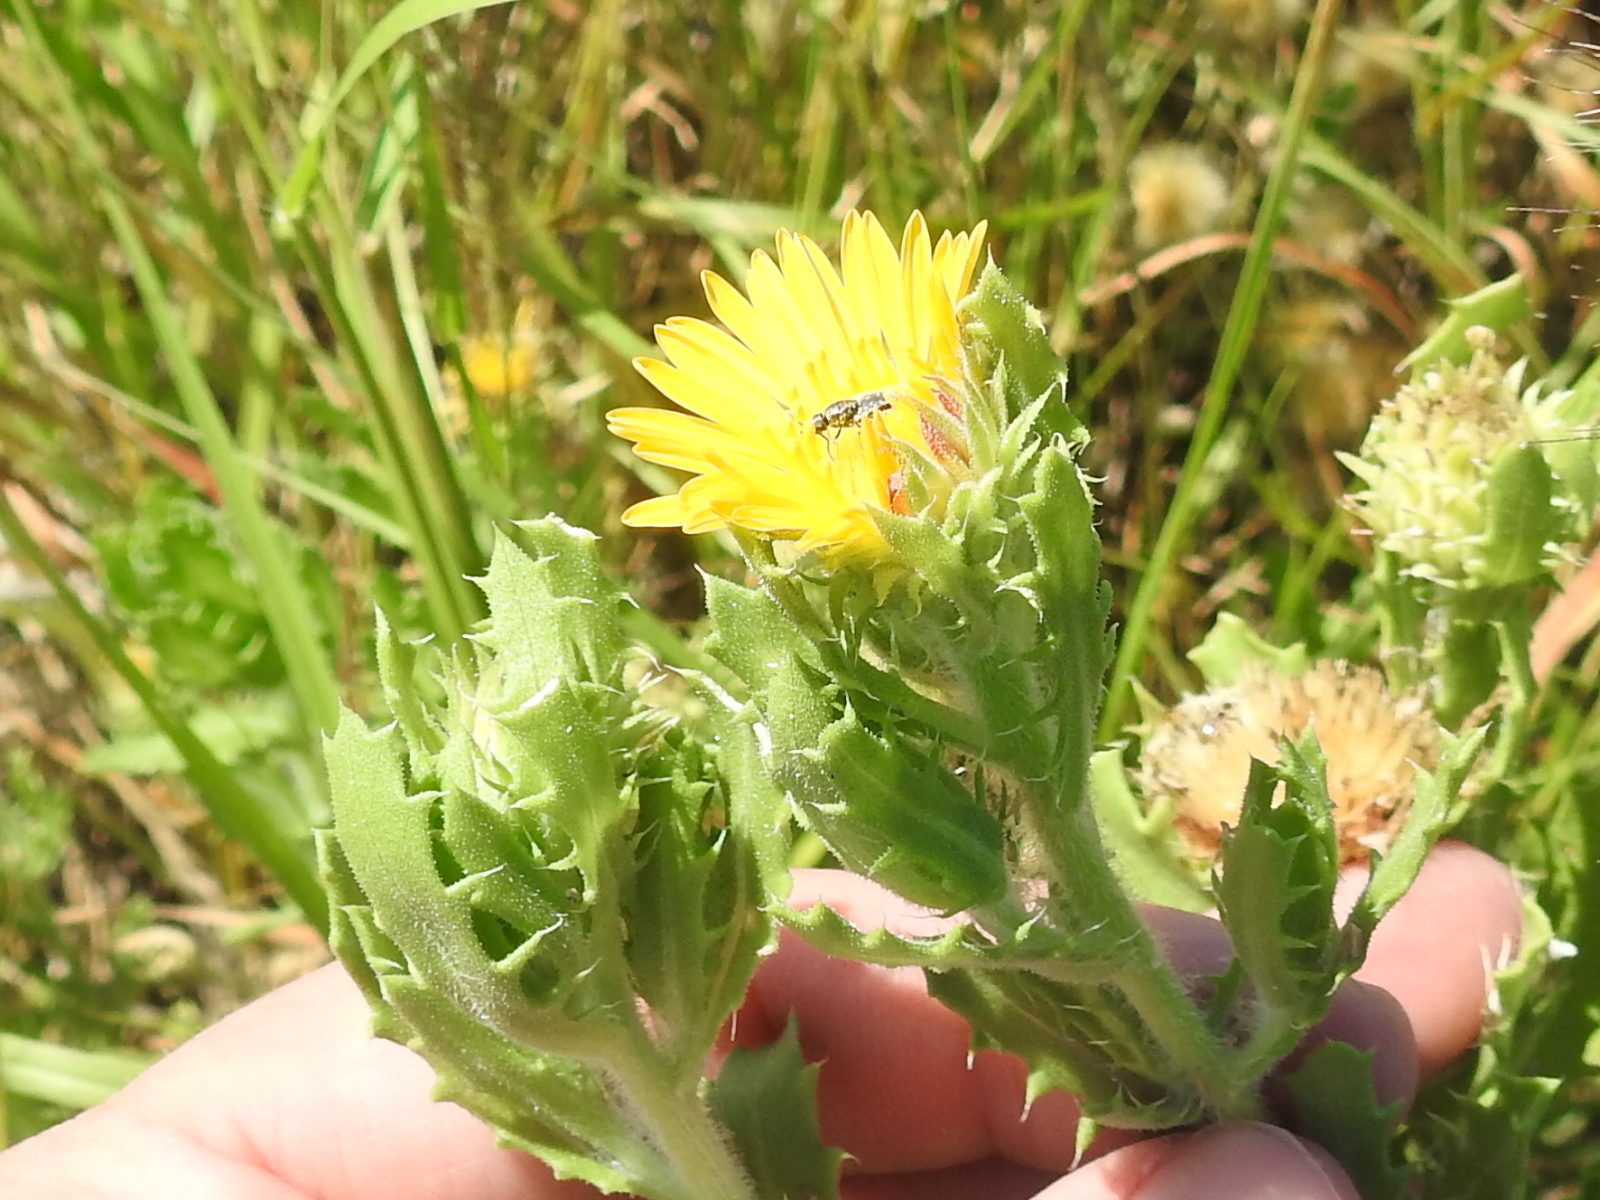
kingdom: Plantae
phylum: Tracheophyta
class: Magnoliopsida
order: Asterales
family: Asteraceae
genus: Rayjacksonia
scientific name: Rayjacksonia phyllocephala
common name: Gulf coast camphor daisy
